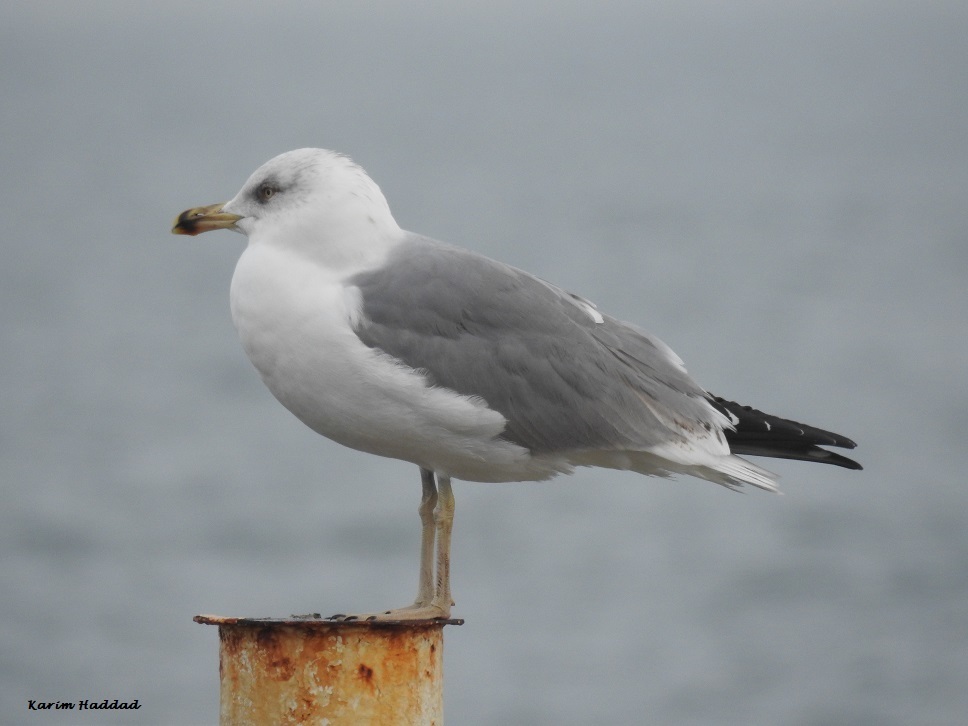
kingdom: Animalia
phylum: Chordata
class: Aves
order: Charadriiformes
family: Laridae
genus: Larus
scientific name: Larus cachinnans
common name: Caspian gull
